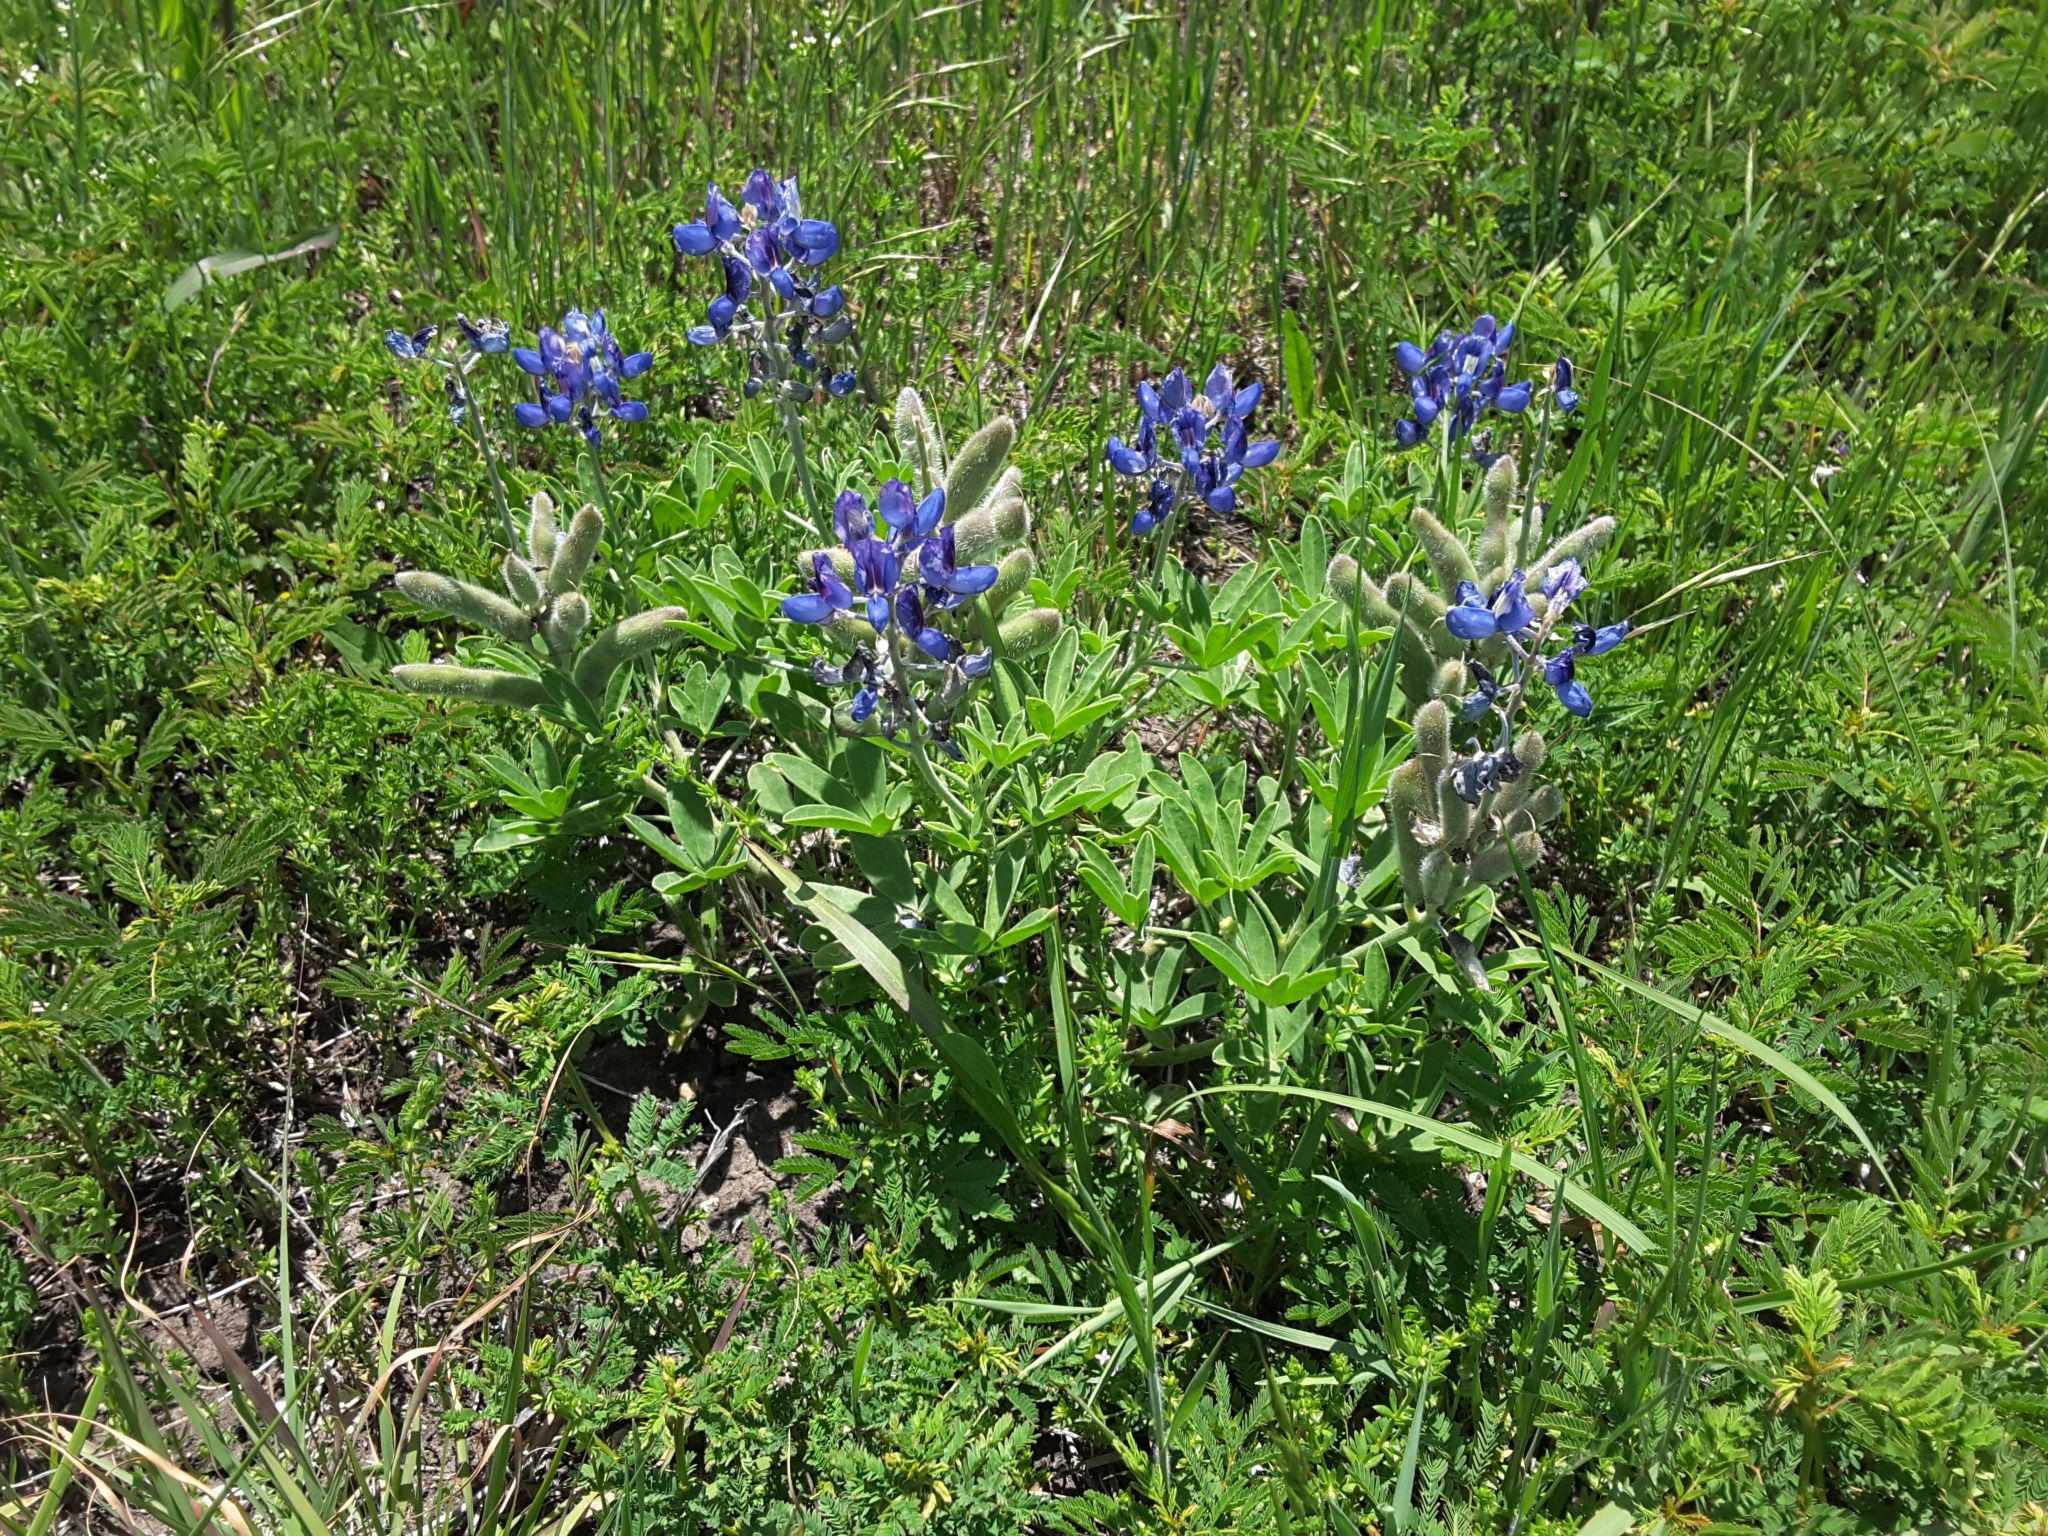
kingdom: Plantae
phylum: Tracheophyta
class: Magnoliopsida
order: Fabales
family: Fabaceae
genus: Lupinus
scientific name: Lupinus texensis
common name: Texas bluebonnet
